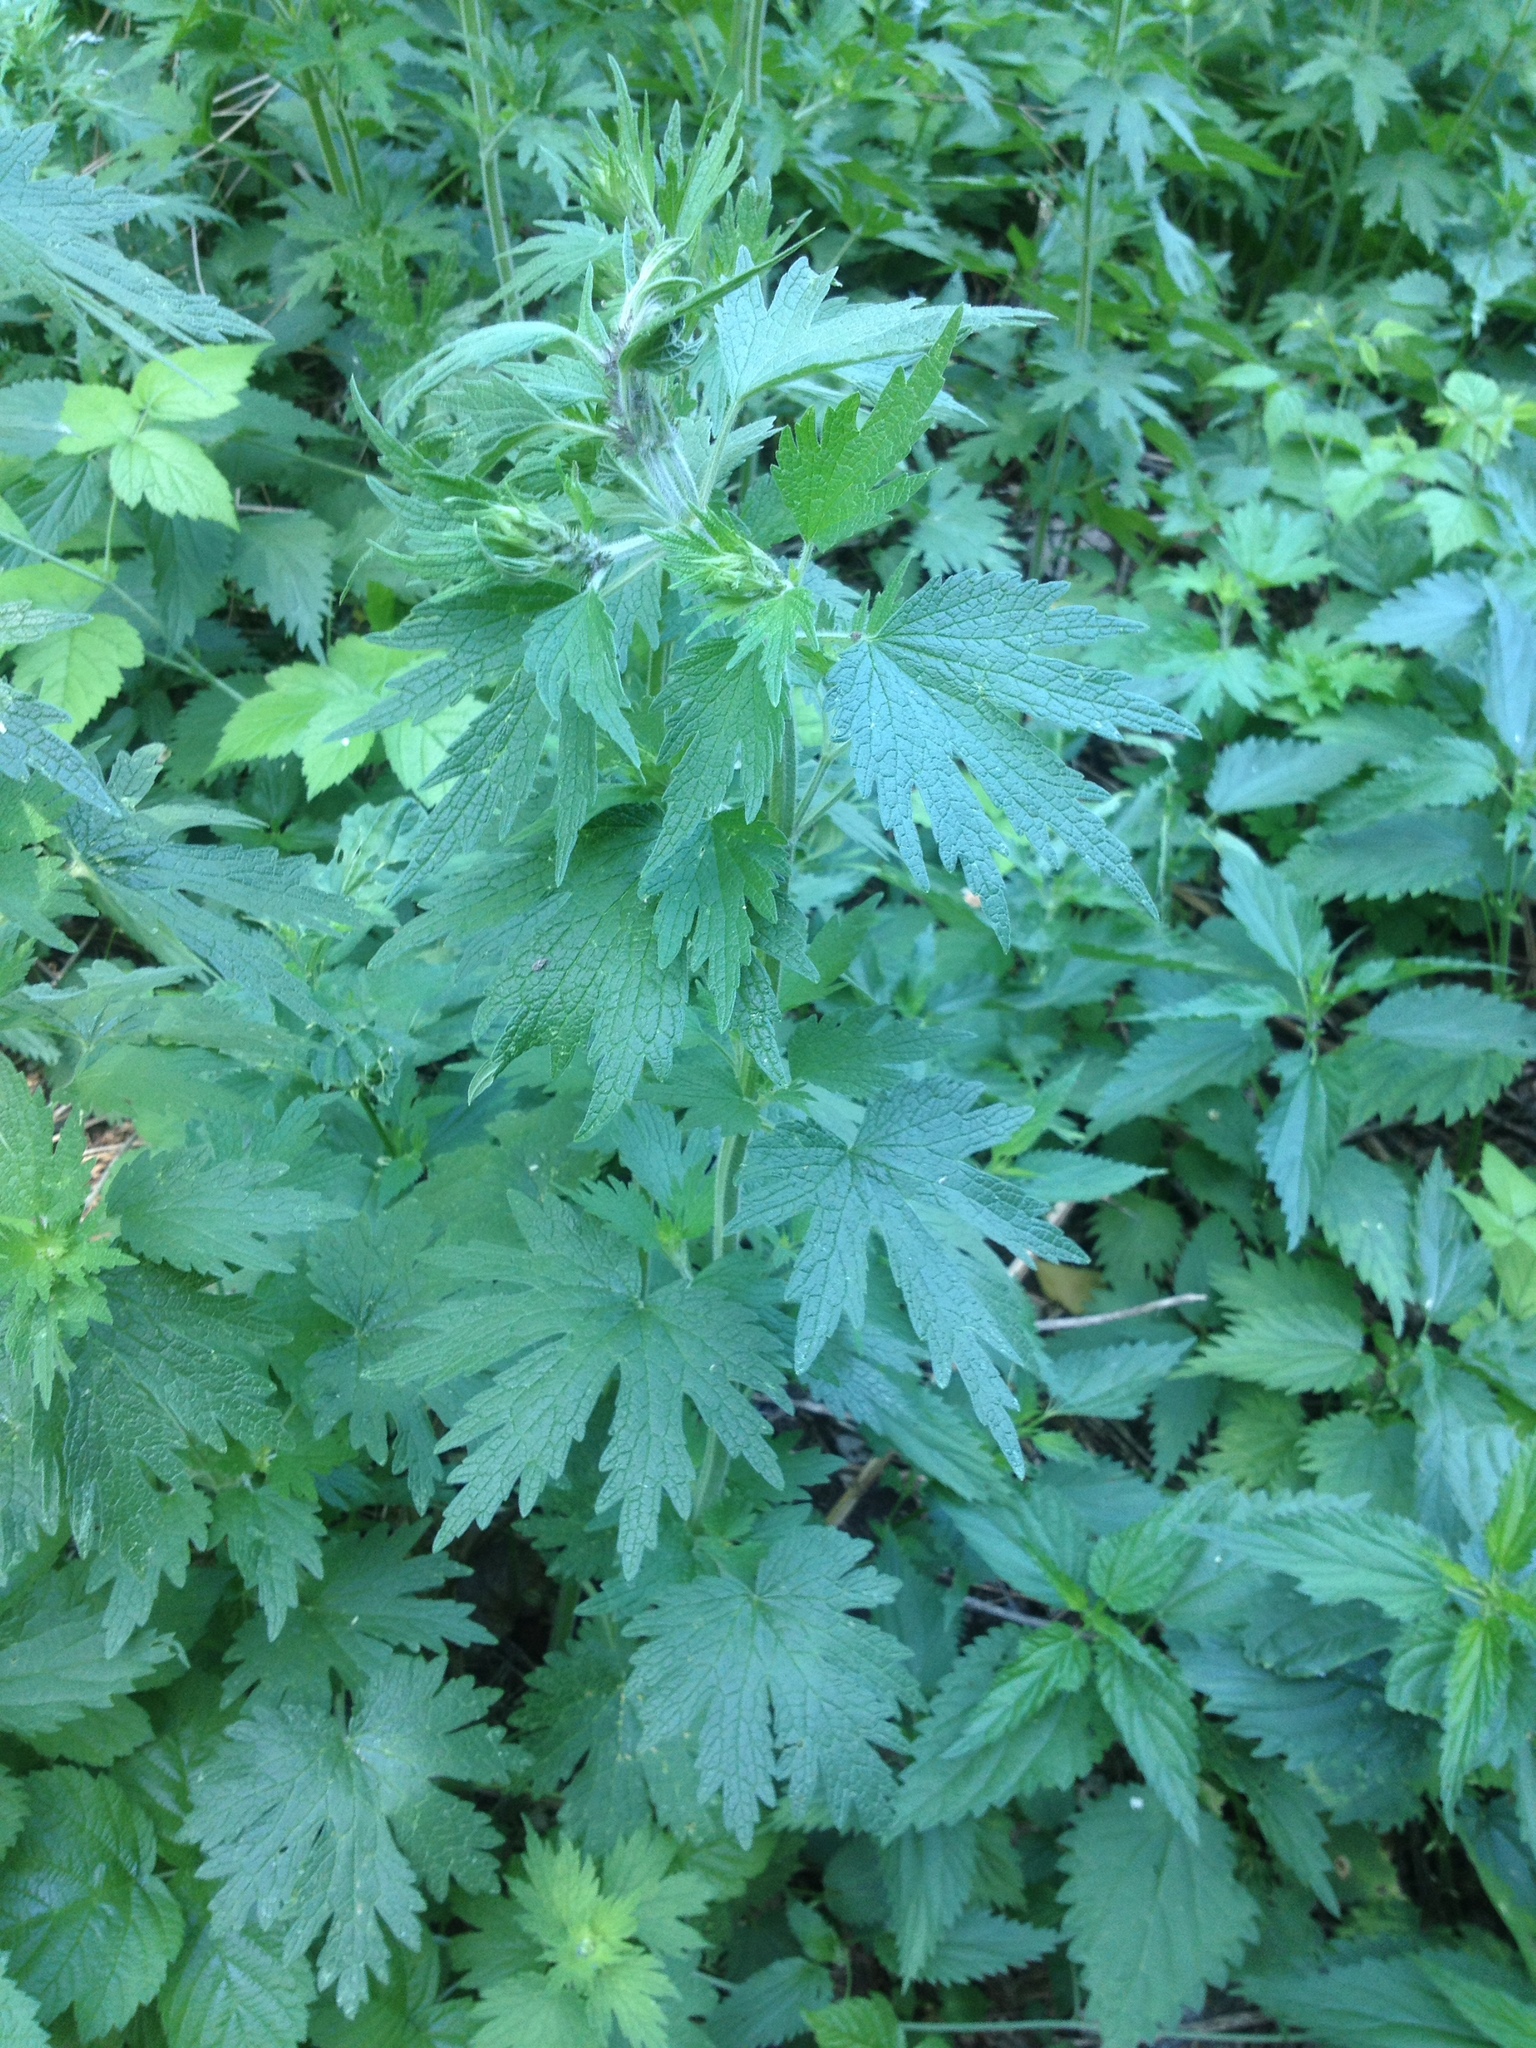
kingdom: Plantae
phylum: Tracheophyta
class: Magnoliopsida
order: Lamiales
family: Lamiaceae
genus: Leonurus
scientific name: Leonurus quinquelobatus
